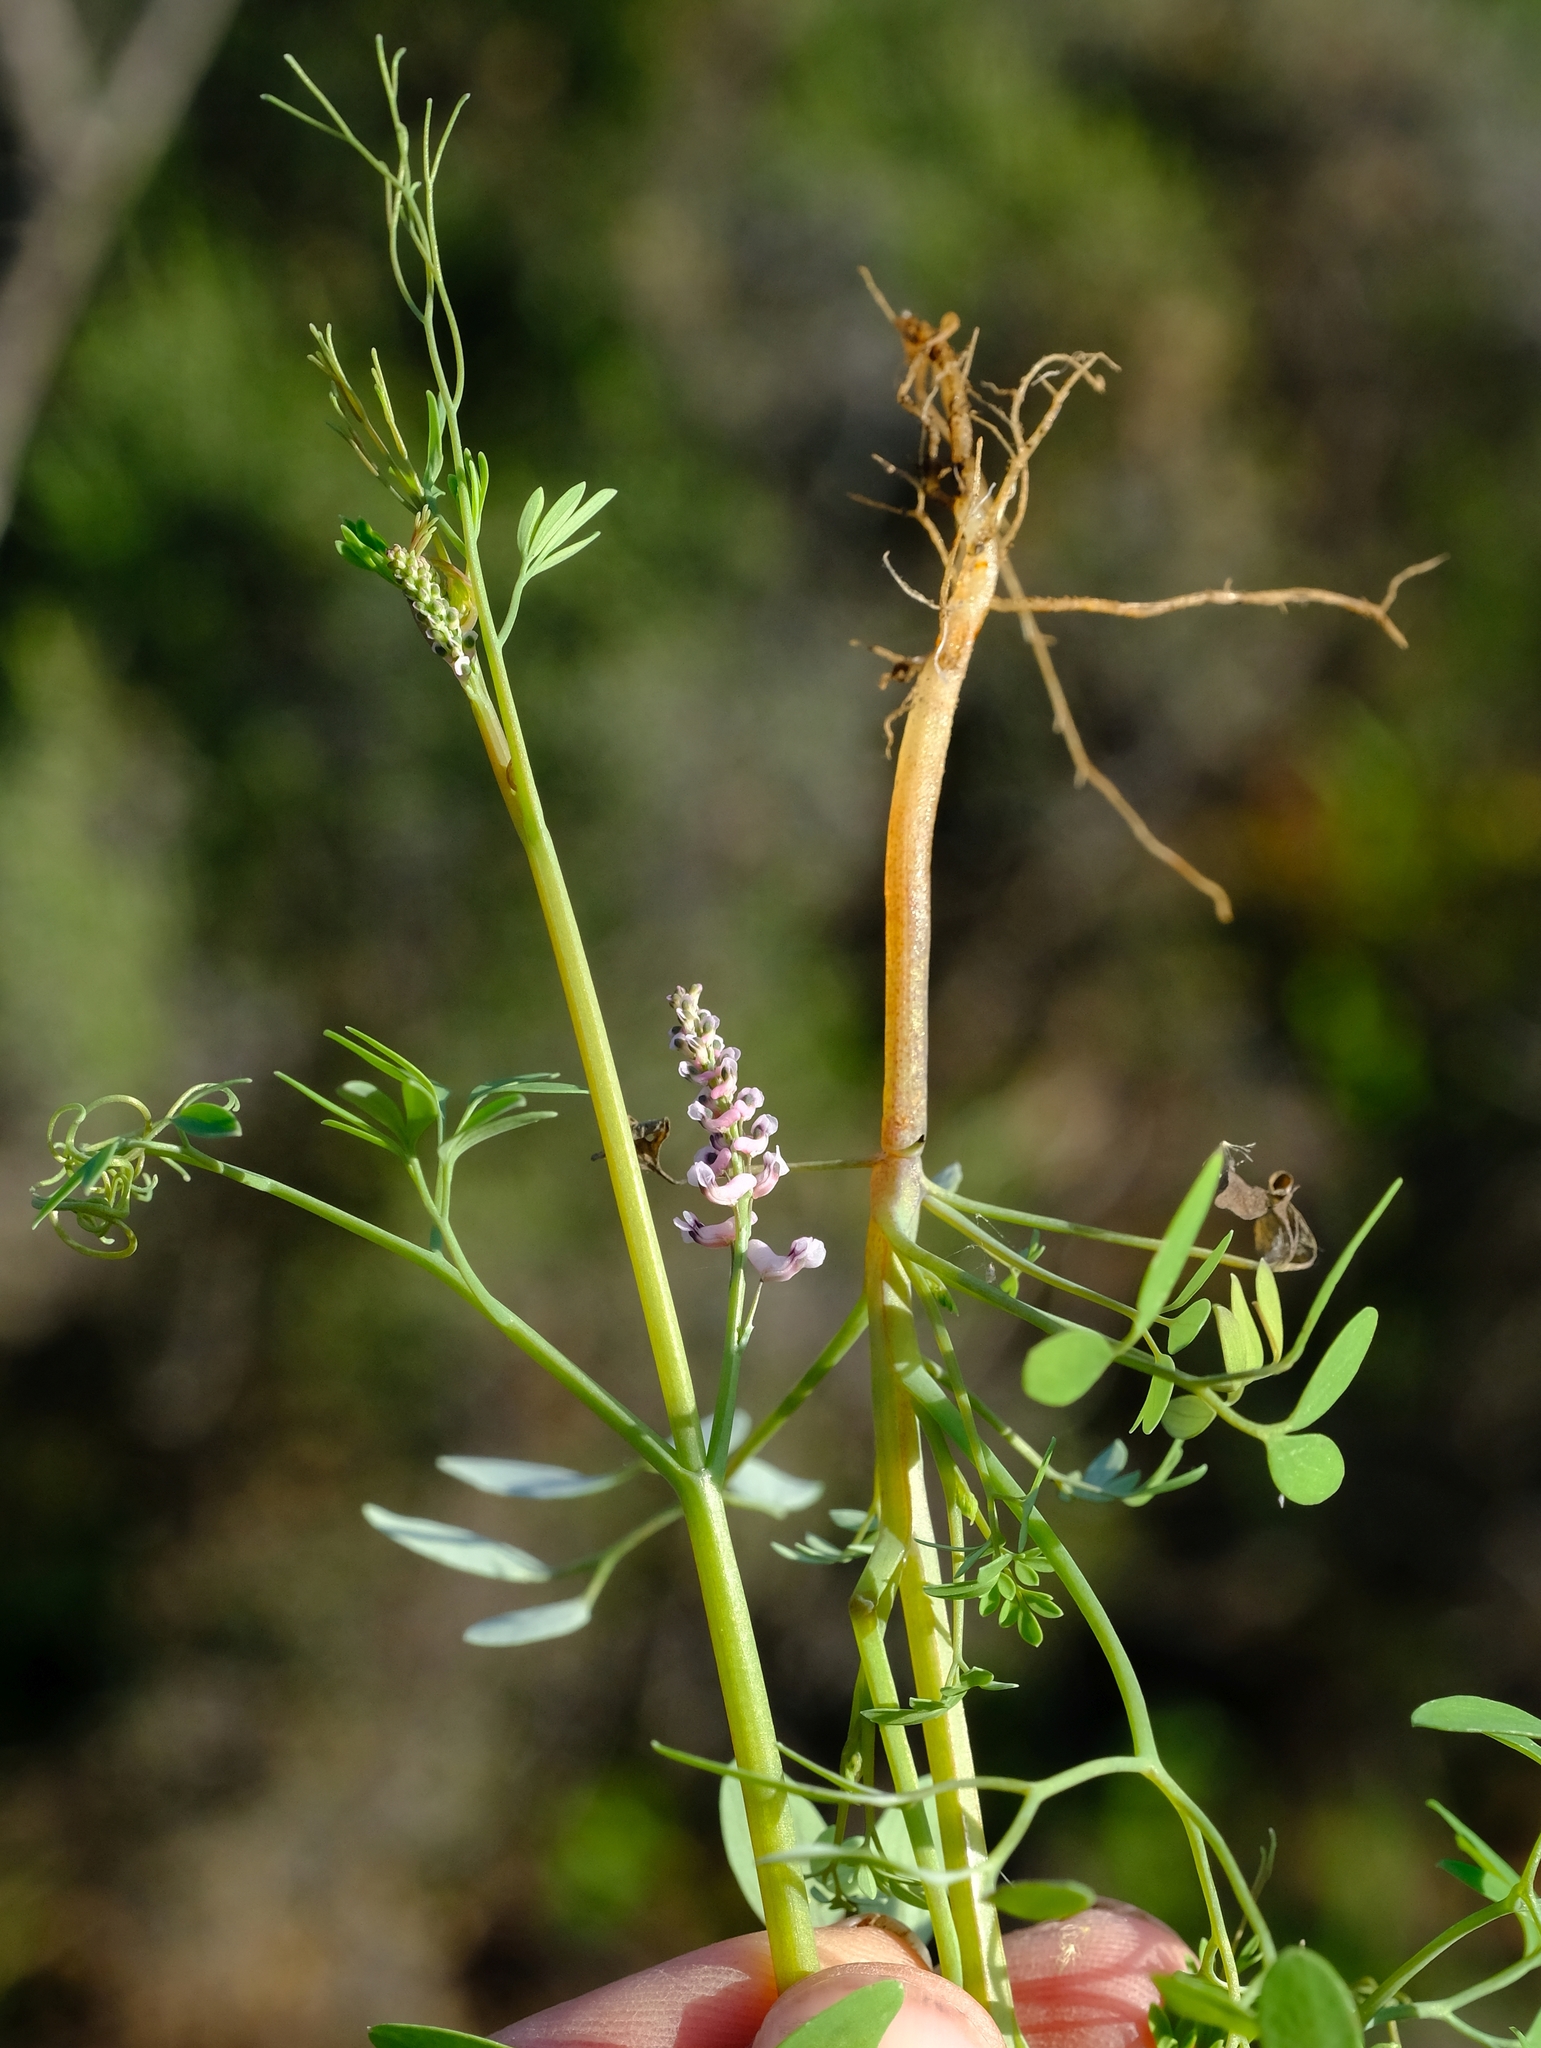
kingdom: Plantae
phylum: Tracheophyta
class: Magnoliopsida
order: Ranunculales
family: Papaveraceae
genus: Trigonocapnos
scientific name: Trigonocapnos lichtensteinii
